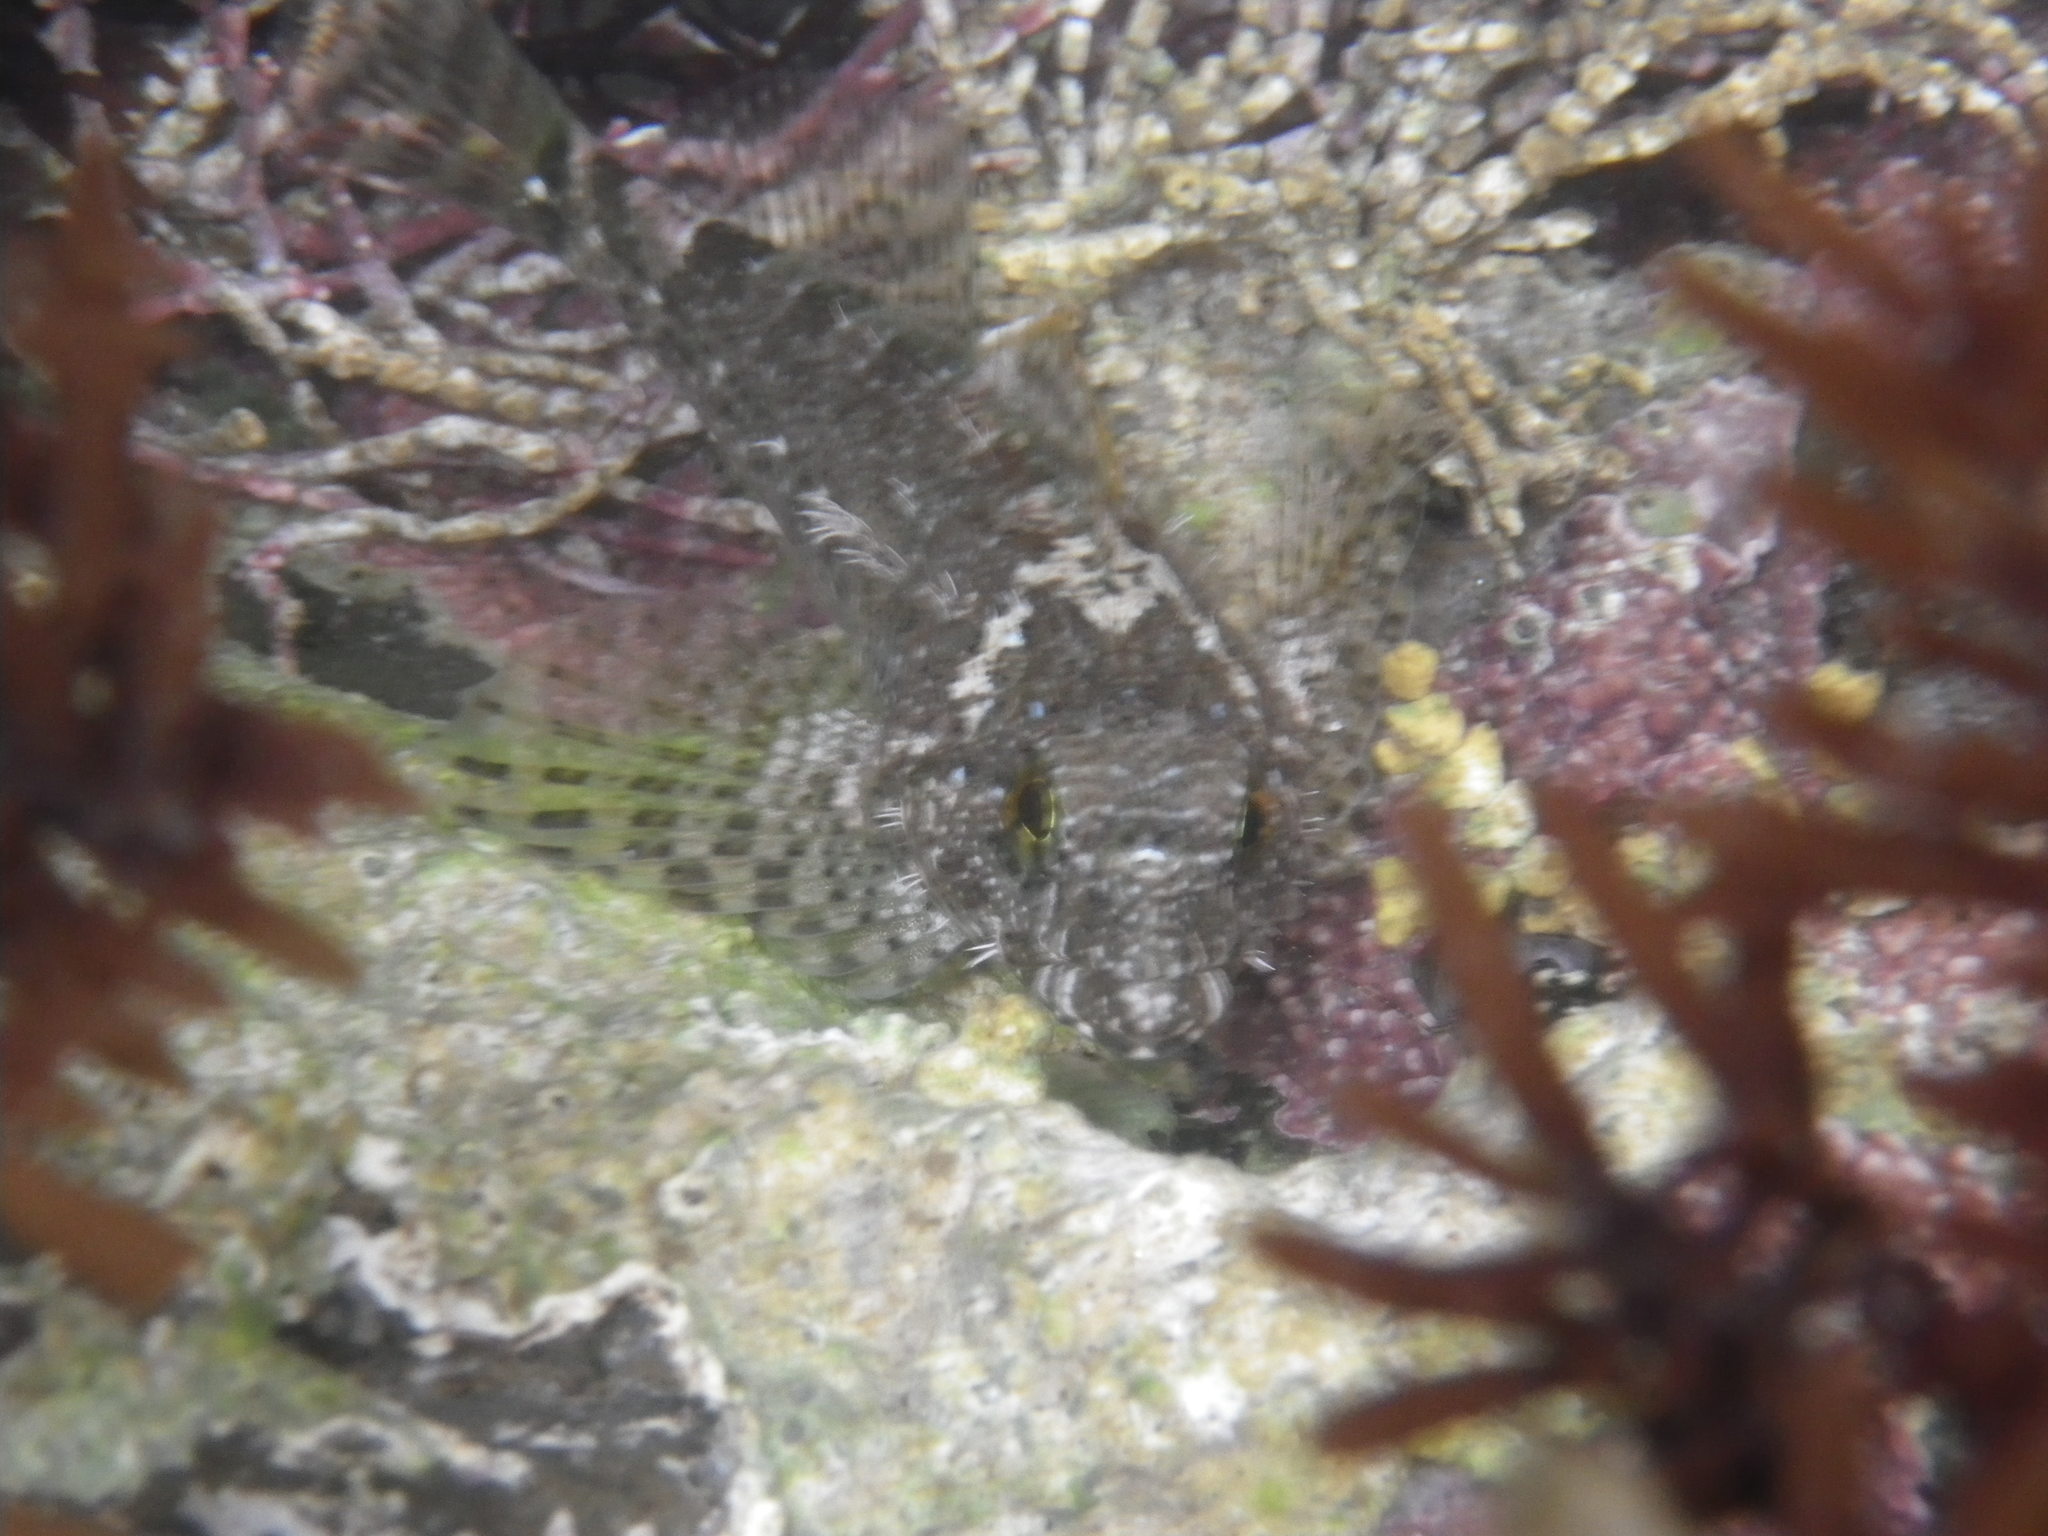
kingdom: Animalia
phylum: Chordata
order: Scorpaeniformes
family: Cottidae
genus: Clinocottus
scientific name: Clinocottus analis
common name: Woolly sculpin
